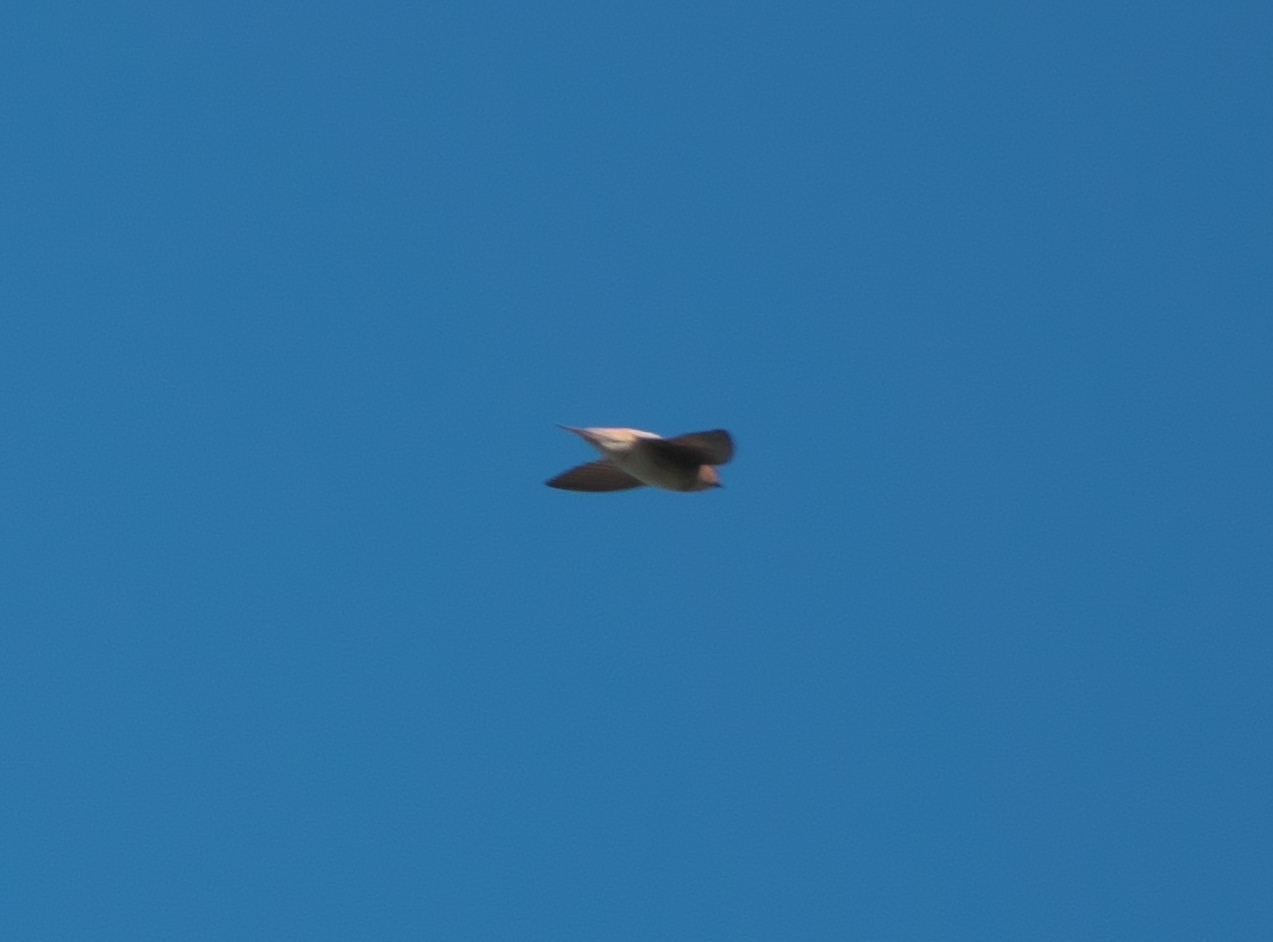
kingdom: Animalia
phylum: Chordata
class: Aves
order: Passeriformes
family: Hirundinidae
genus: Petrochelidon
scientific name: Petrochelidon fulva
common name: Cave swallow
